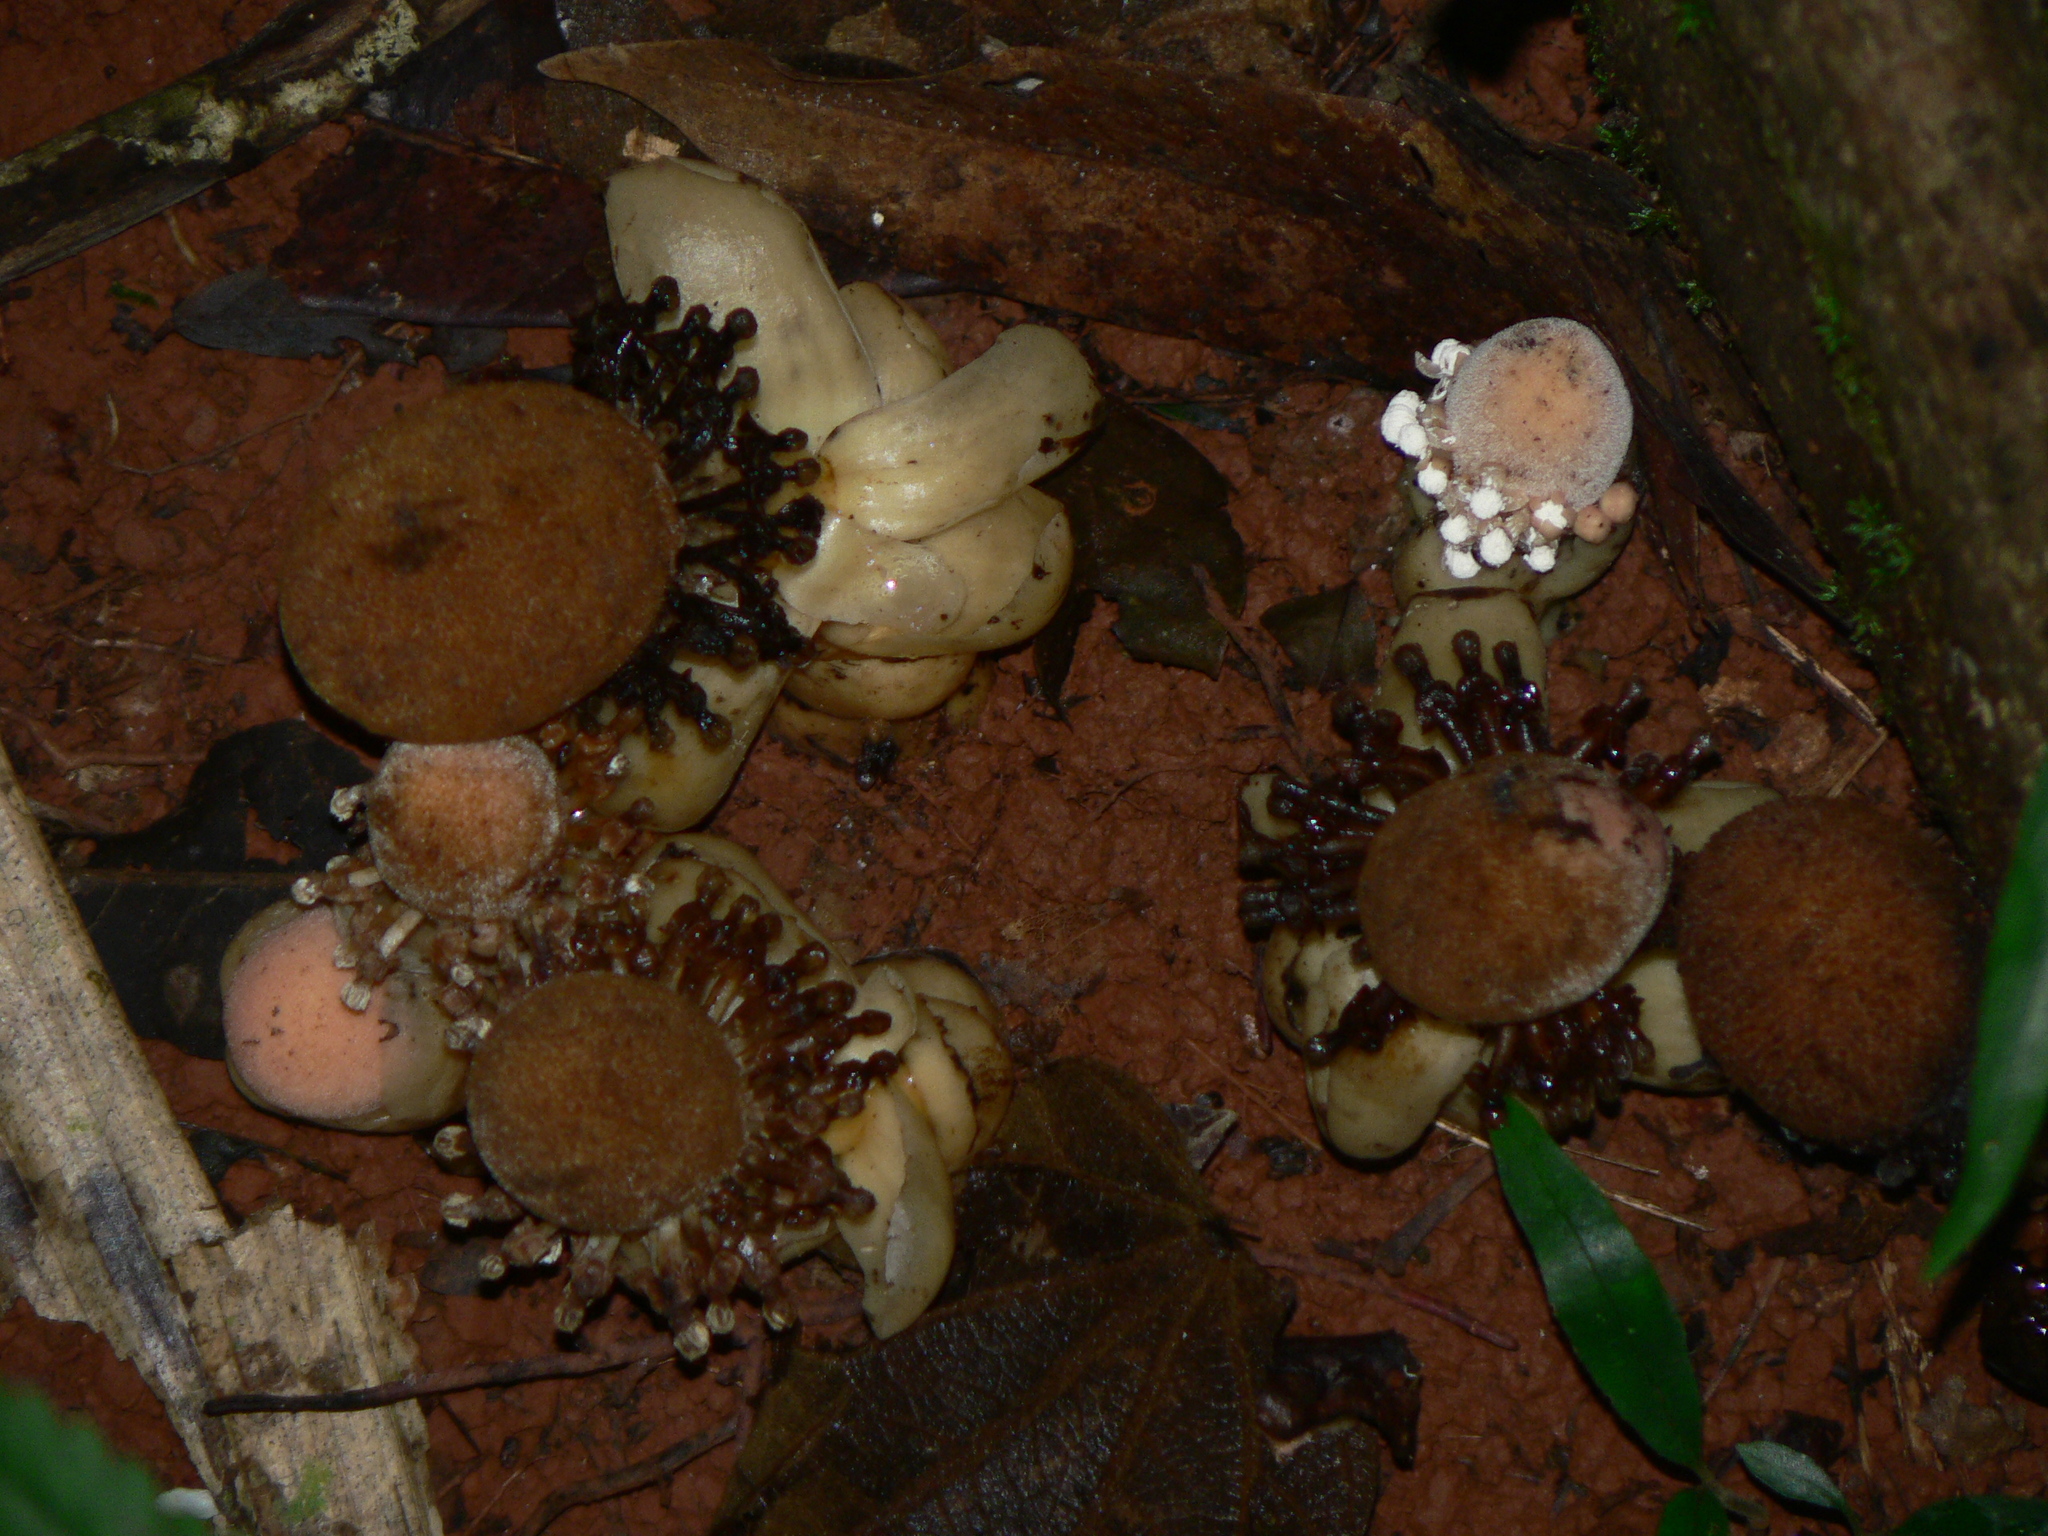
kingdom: Plantae
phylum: Tracheophyta
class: Magnoliopsida
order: Santalales
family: Balanophoraceae
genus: Balanophora
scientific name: Balanophora fungosa
